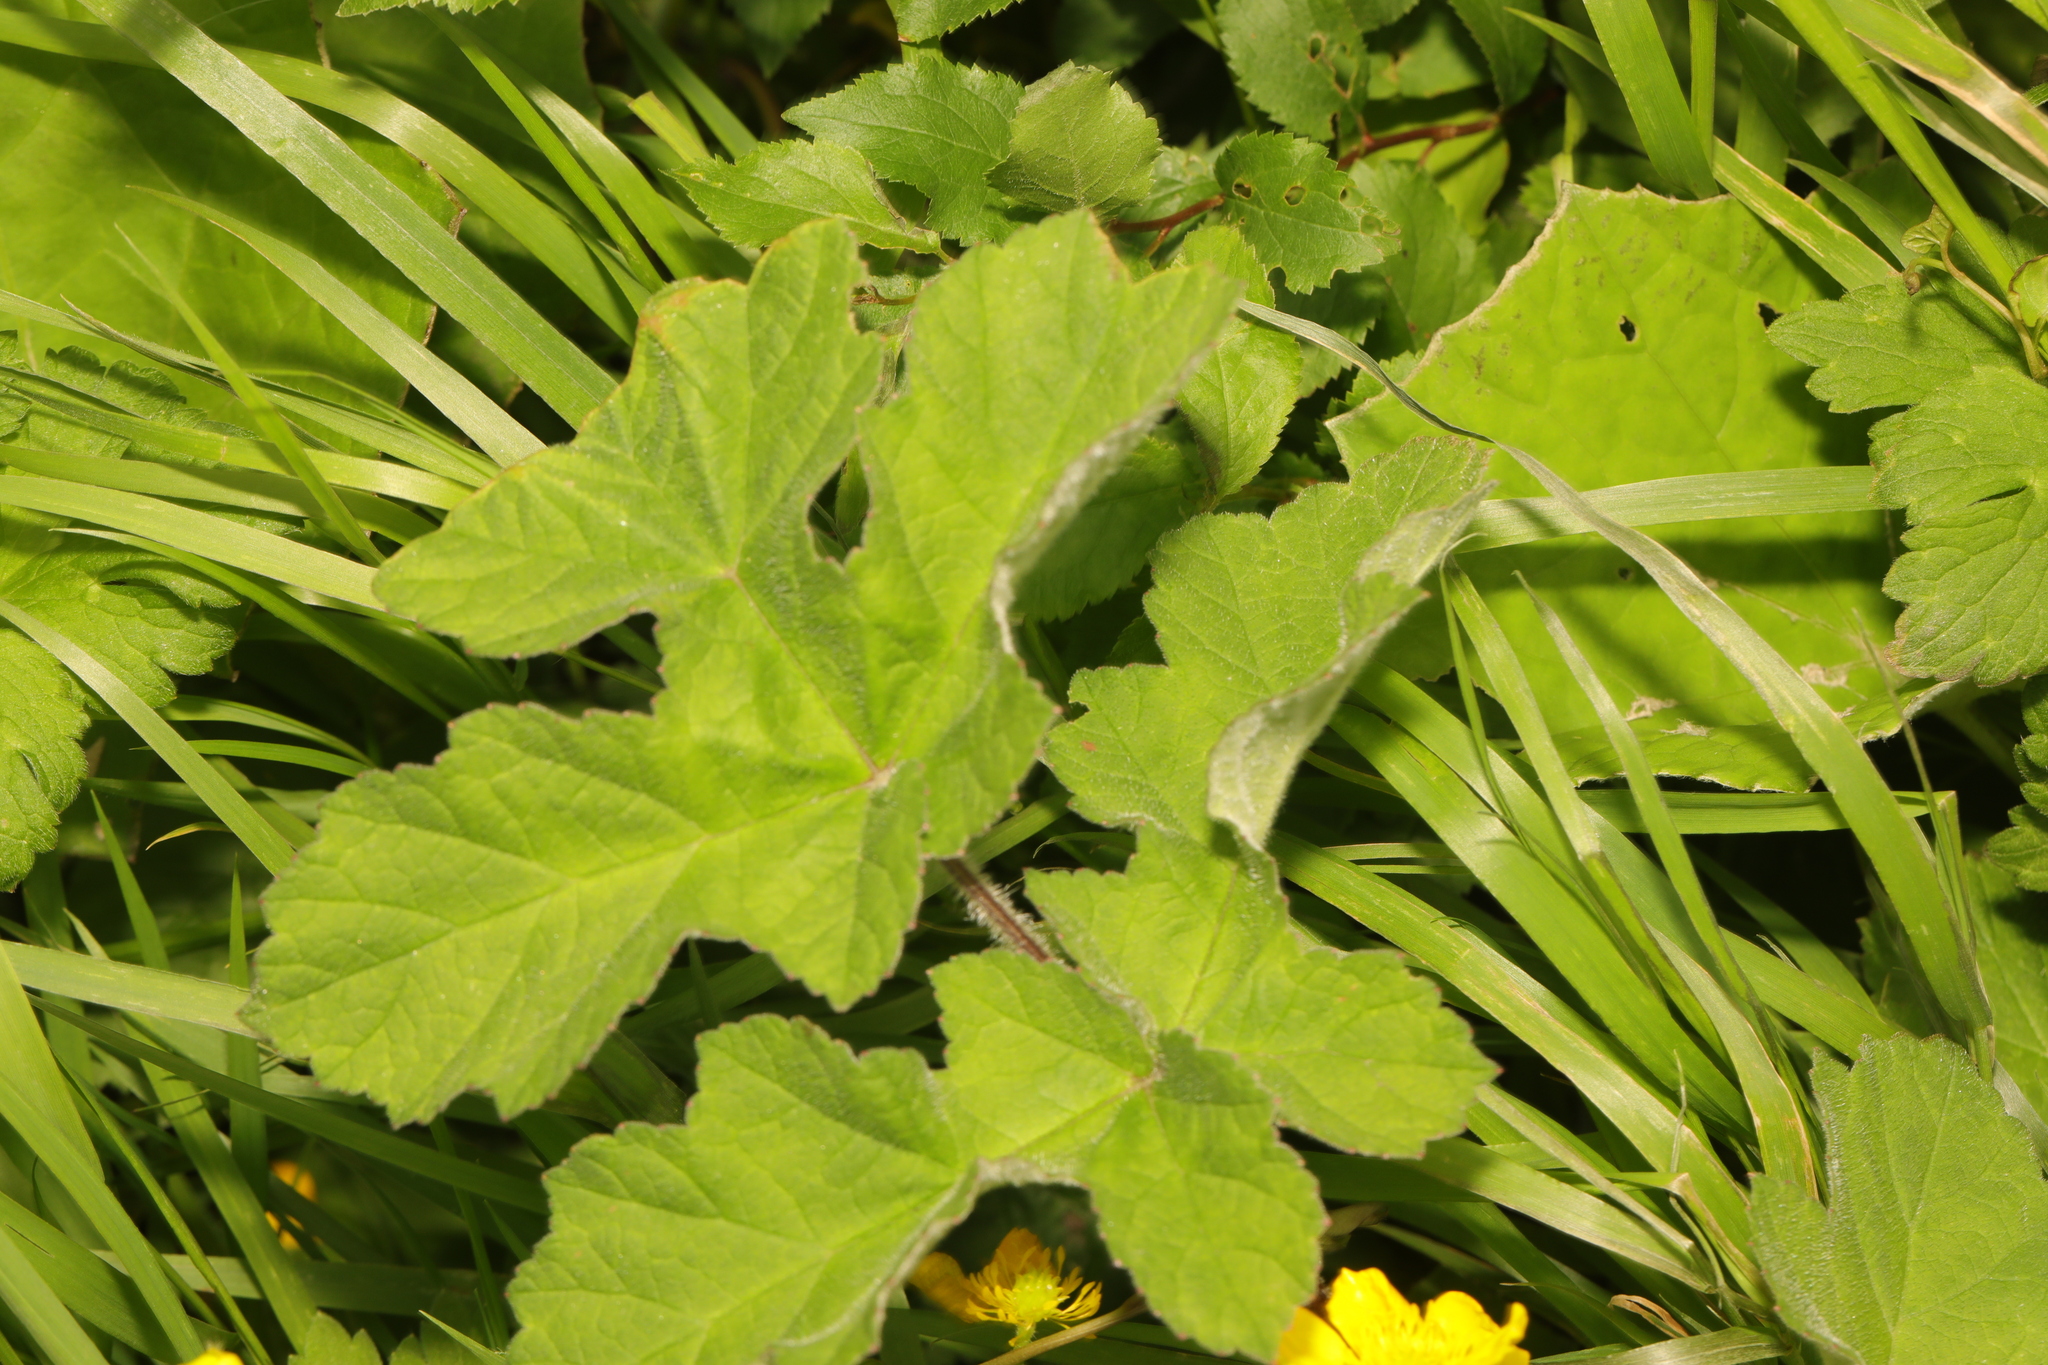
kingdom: Plantae
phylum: Tracheophyta
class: Magnoliopsida
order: Apiales
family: Apiaceae
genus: Heracleum
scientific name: Heracleum sphondylium
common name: Hogweed
